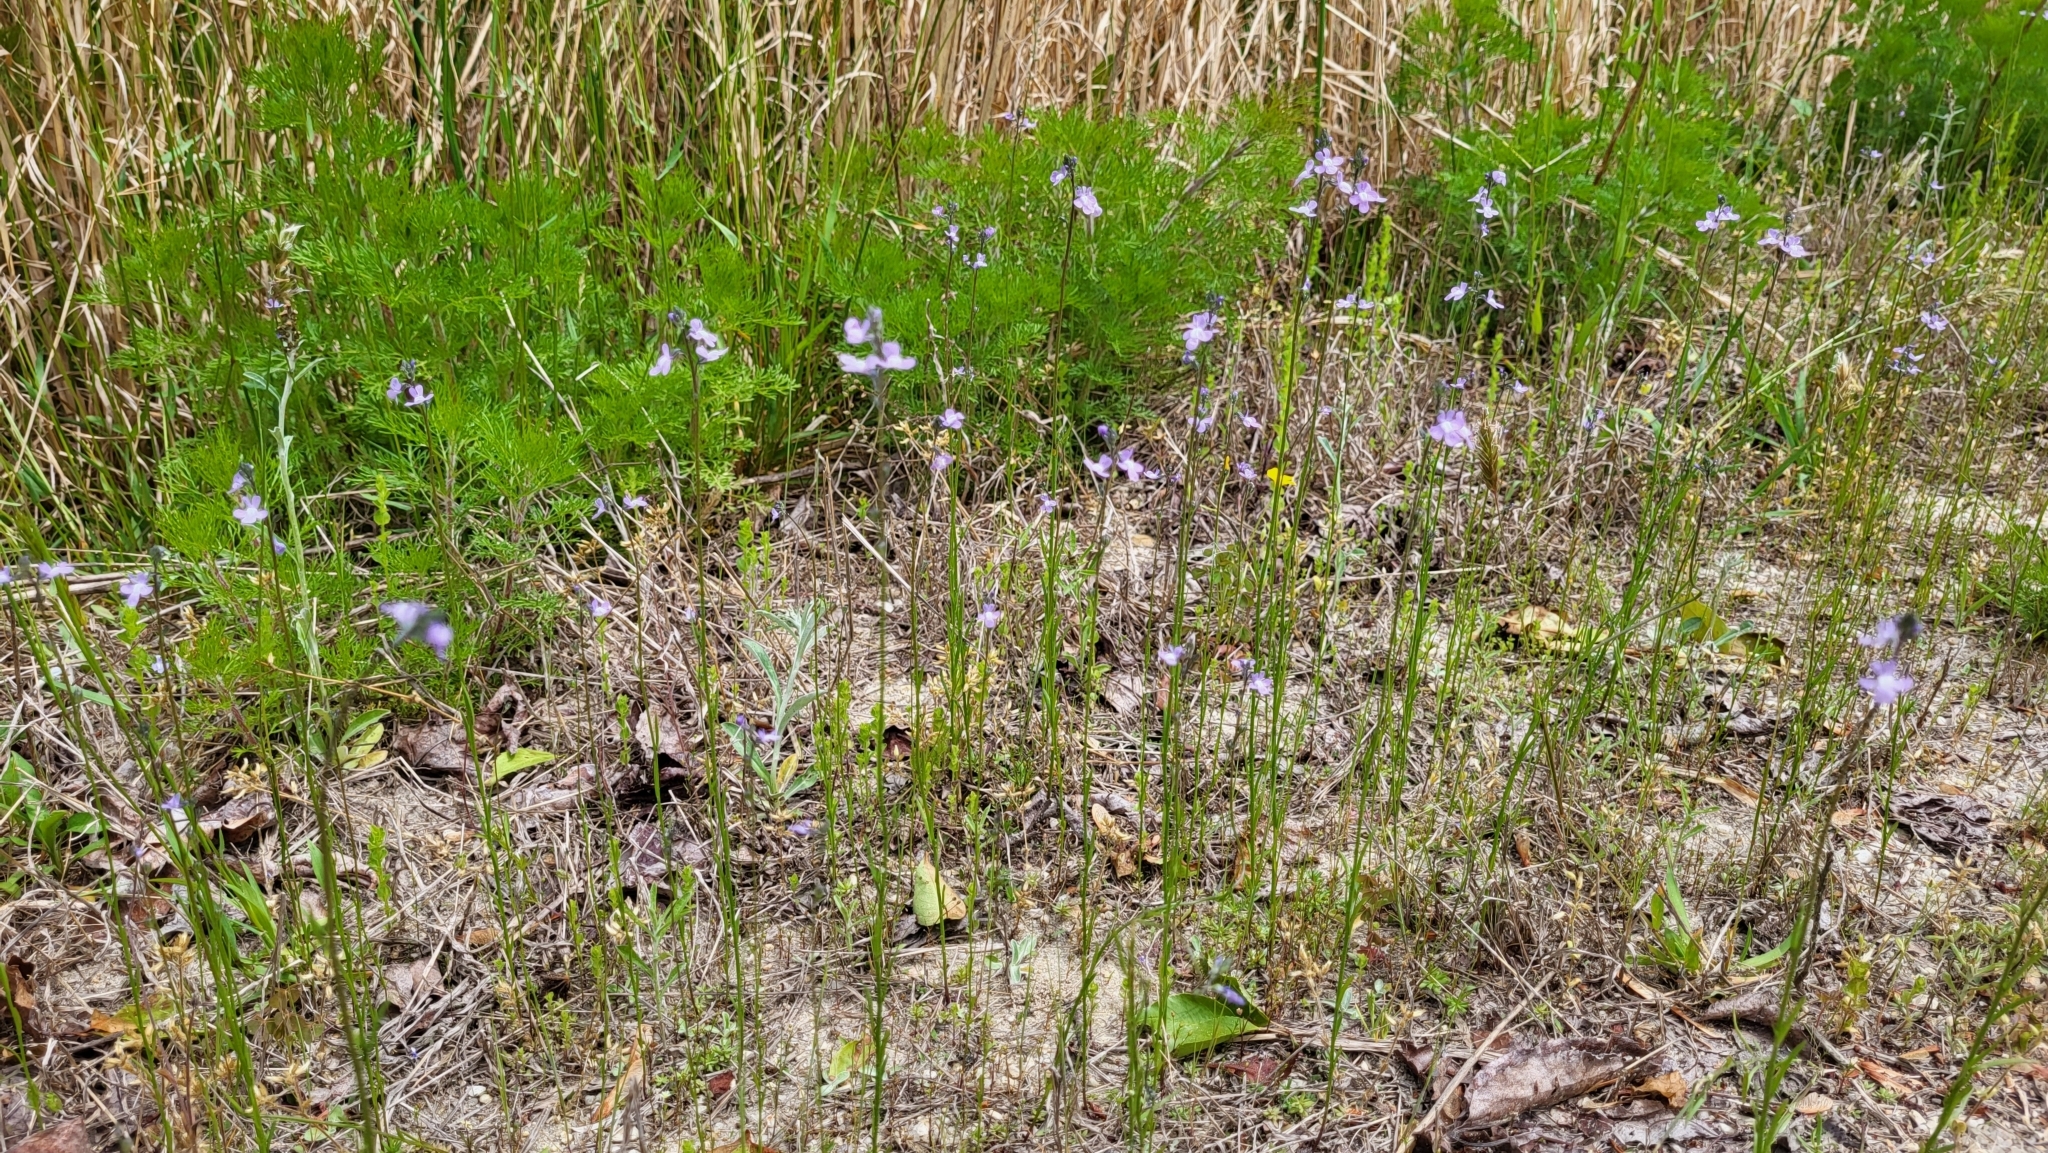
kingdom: Plantae
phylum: Tracheophyta
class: Magnoliopsida
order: Lamiales
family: Plantaginaceae
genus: Nuttallanthus
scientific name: Nuttallanthus canadensis
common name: Blue toadflax
